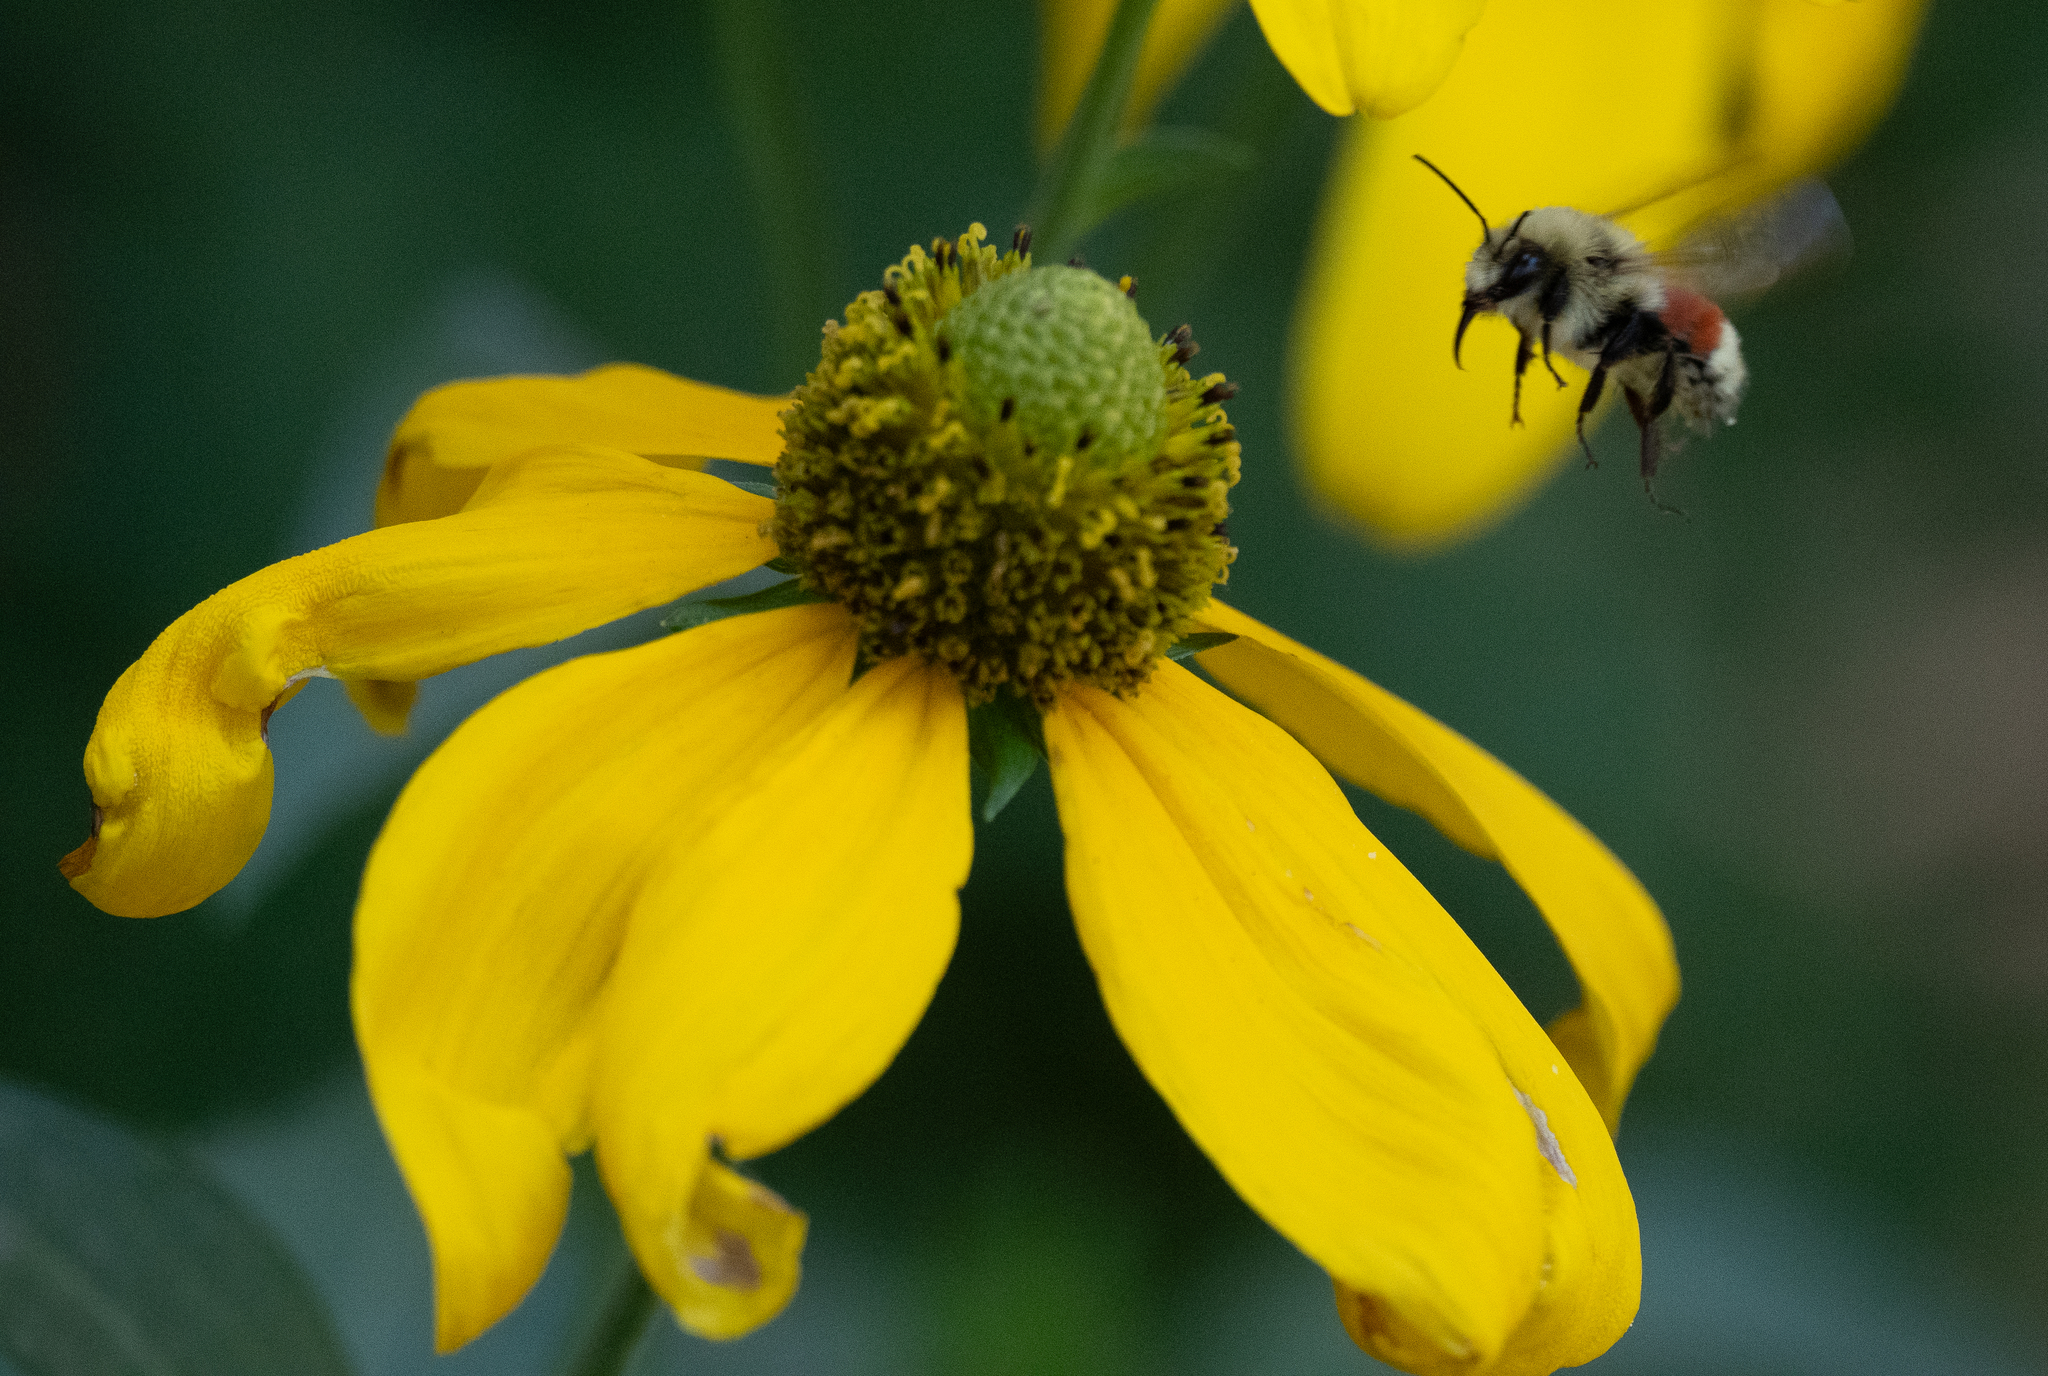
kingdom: Animalia
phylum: Arthropoda
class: Insecta
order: Hymenoptera
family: Apidae
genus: Bombus
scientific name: Bombus huntii
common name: Hunt bumble bee
